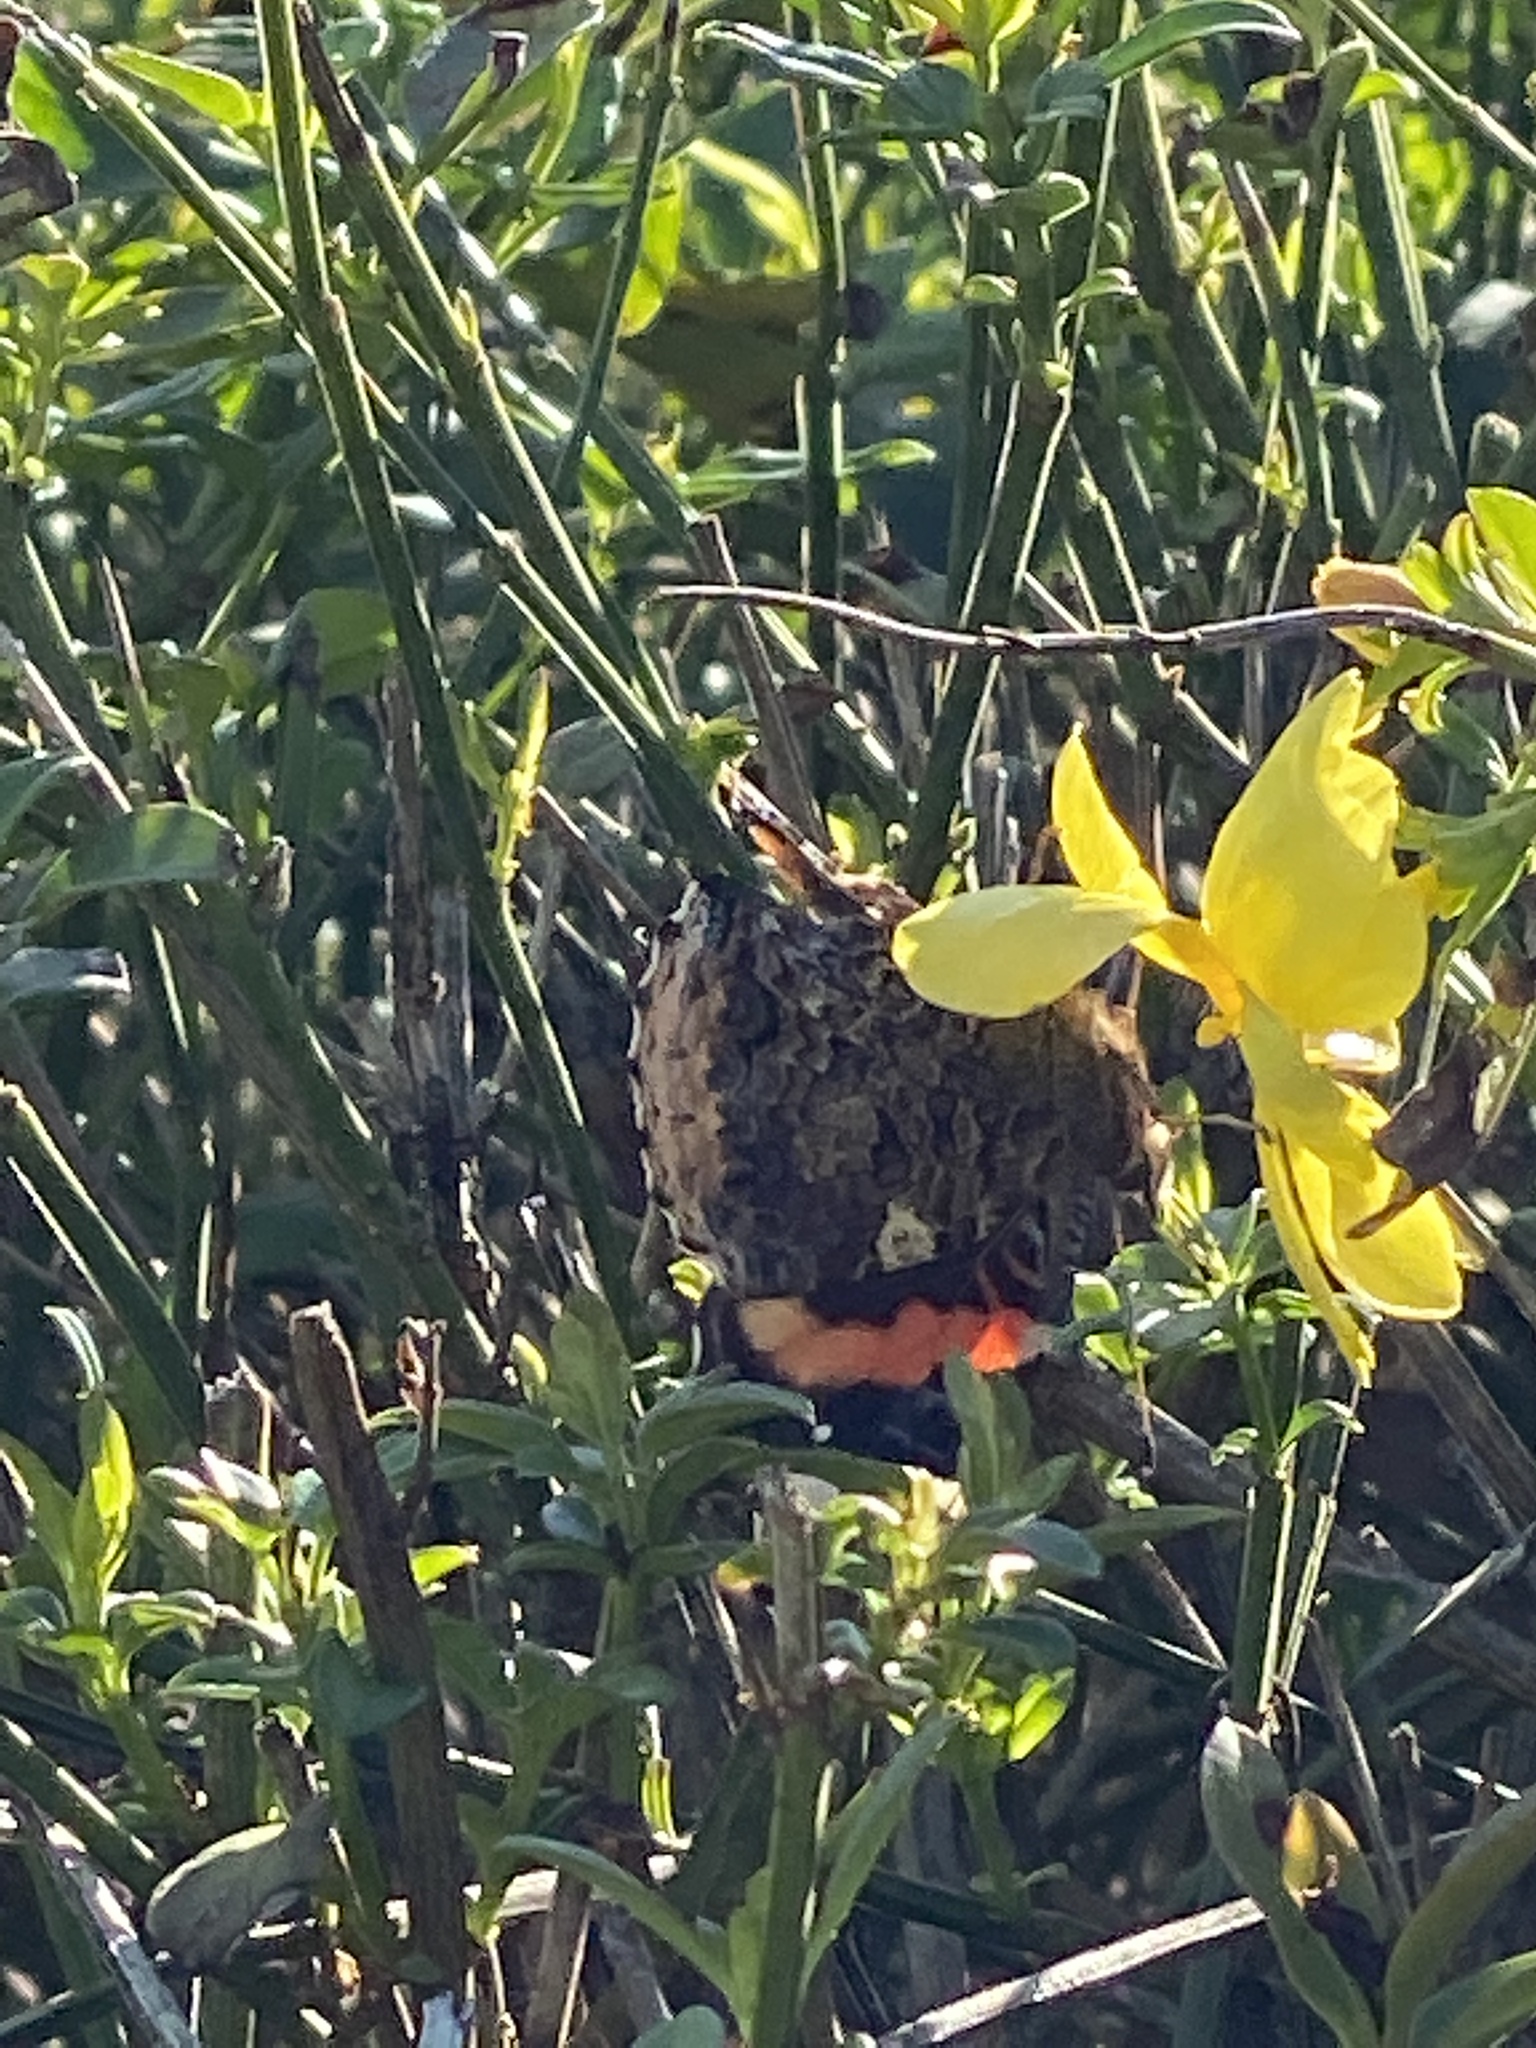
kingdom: Animalia
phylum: Arthropoda
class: Insecta
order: Lepidoptera
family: Nymphalidae
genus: Vanessa
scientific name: Vanessa atalanta
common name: Red admiral
